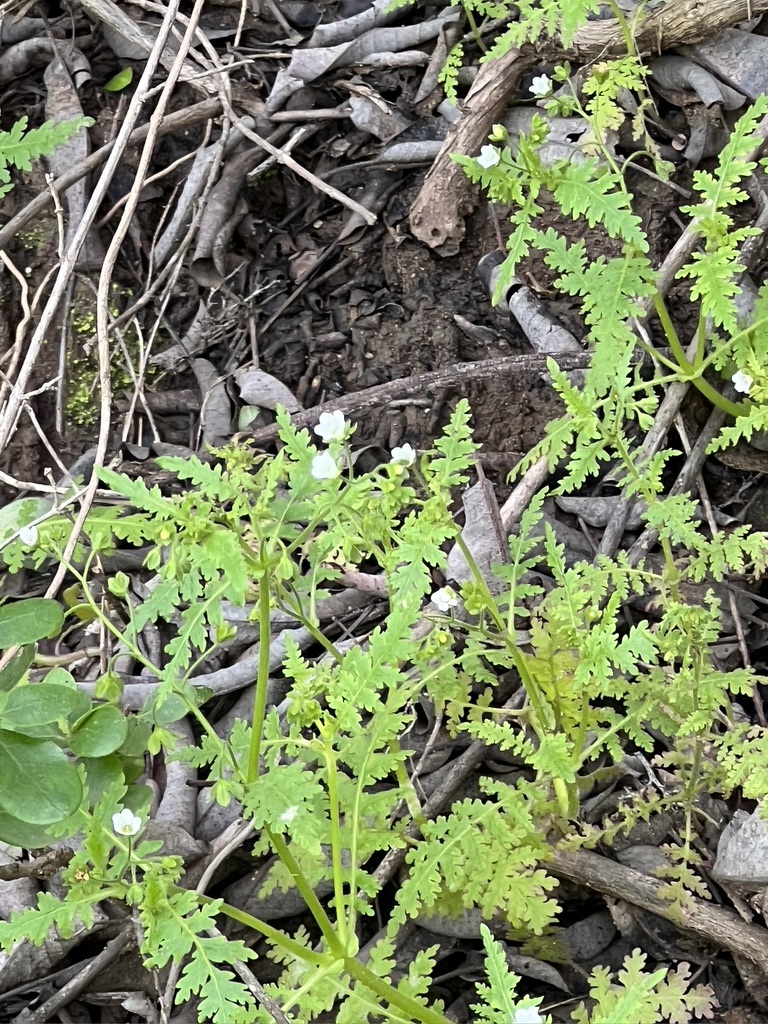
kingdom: Plantae
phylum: Tracheophyta
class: Magnoliopsida
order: Boraginales
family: Hydrophyllaceae
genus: Eucrypta
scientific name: Eucrypta chrysanthemifolia
